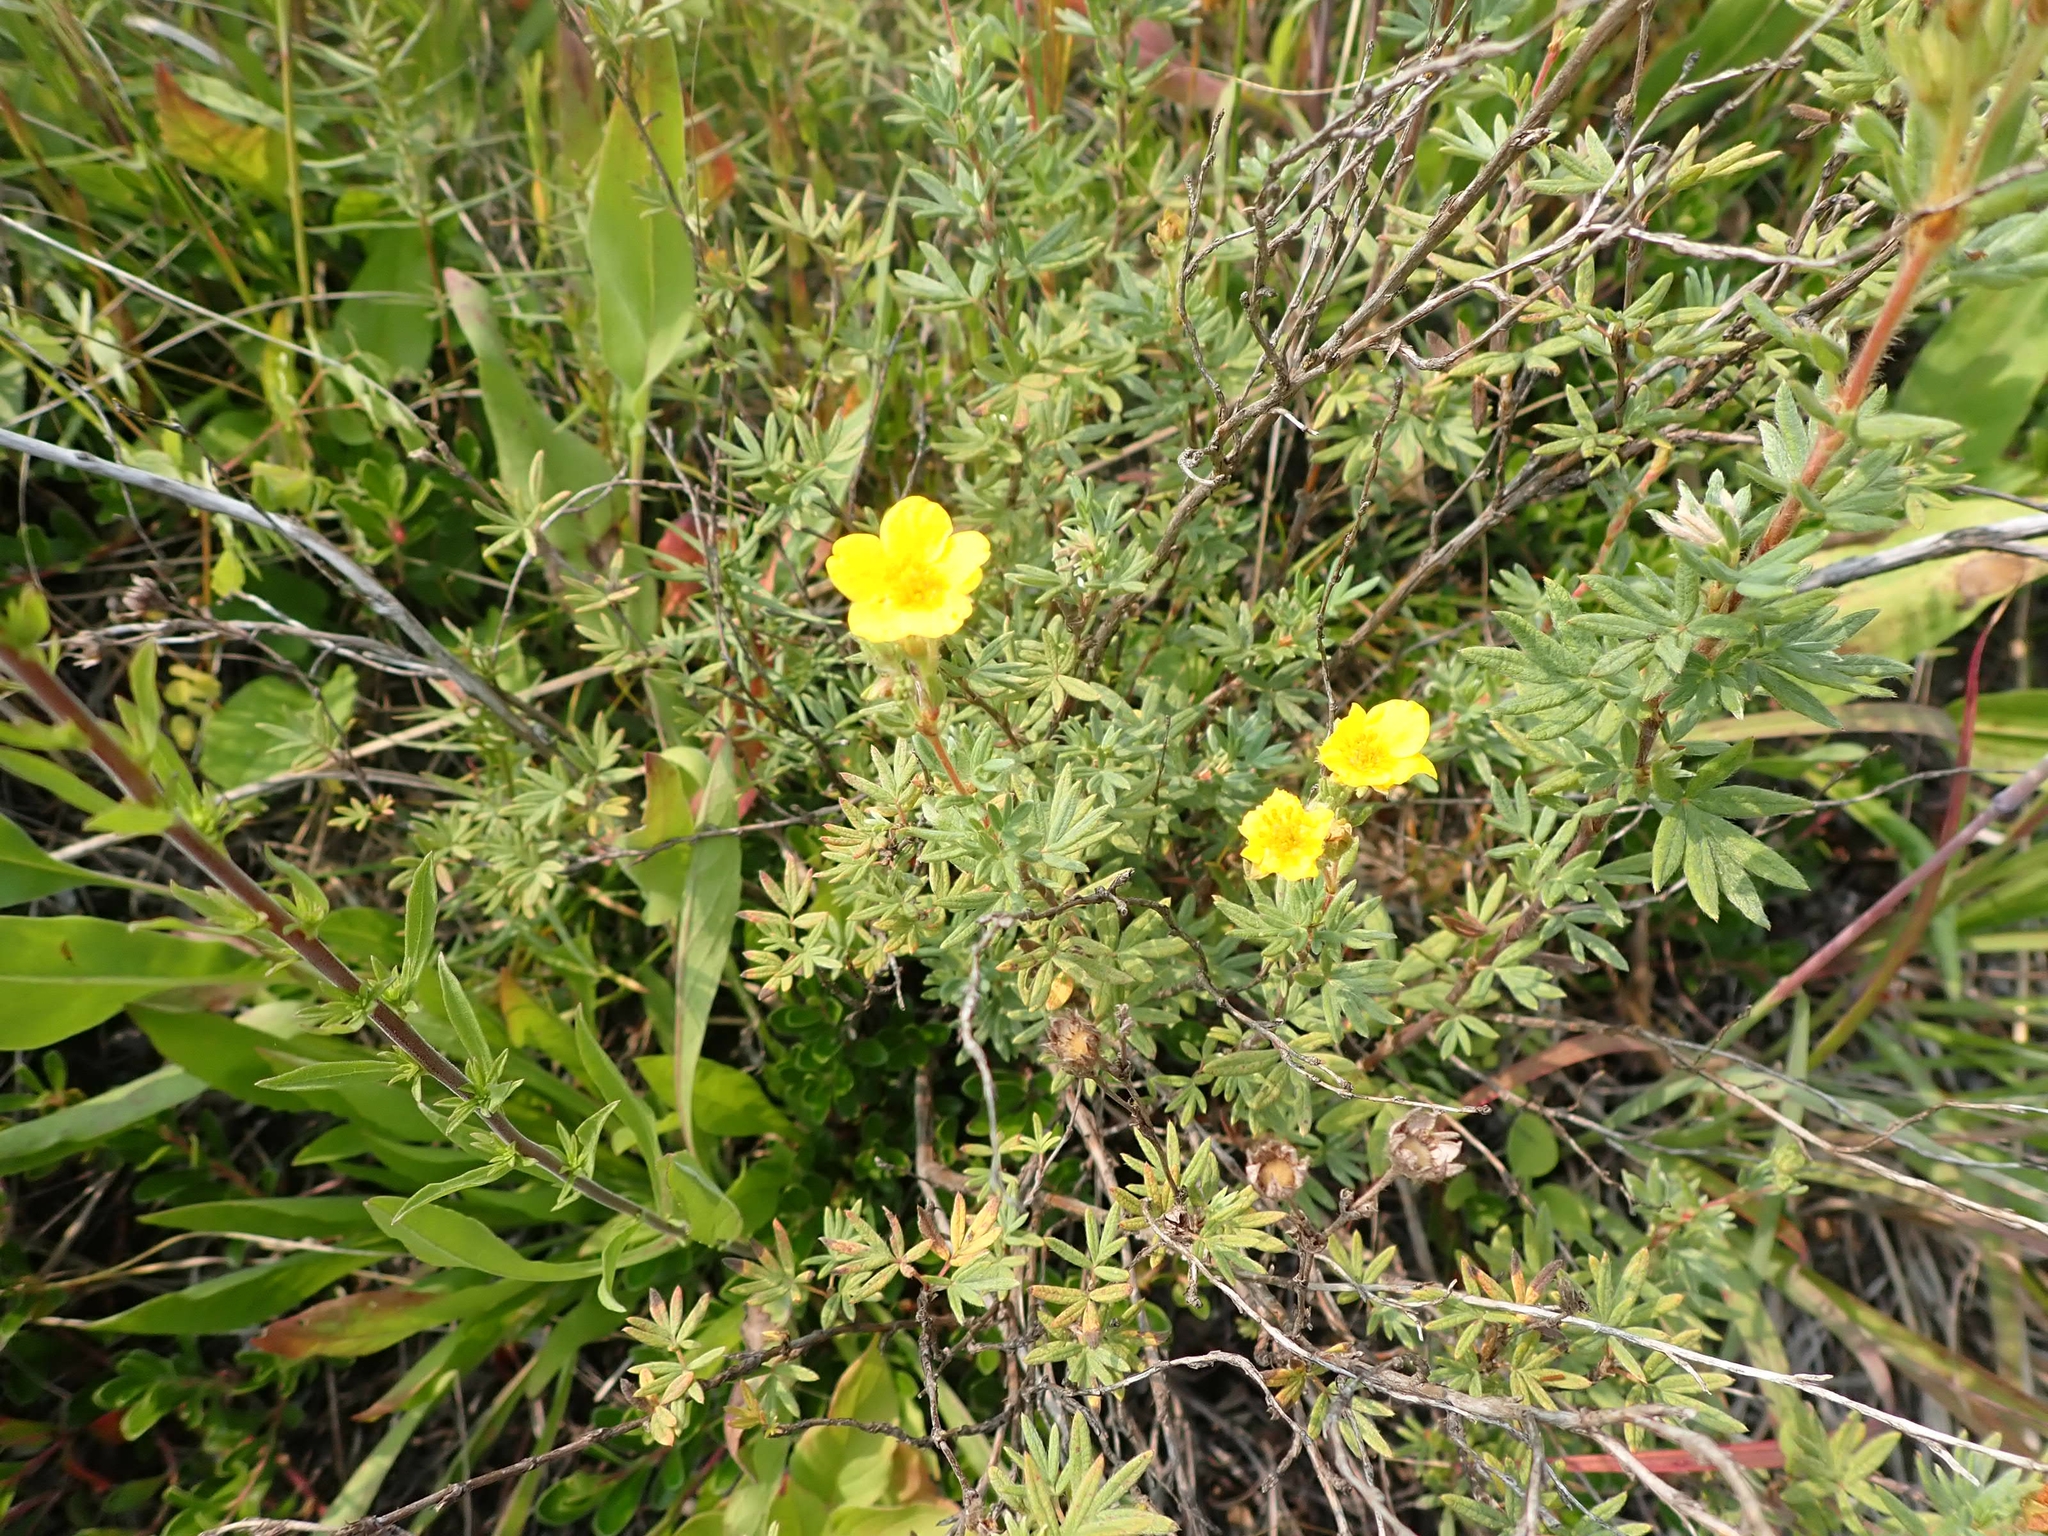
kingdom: Plantae
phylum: Tracheophyta
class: Magnoliopsida
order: Rosales
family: Rosaceae
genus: Dasiphora
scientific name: Dasiphora fruticosa
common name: Shrubby cinquefoil
